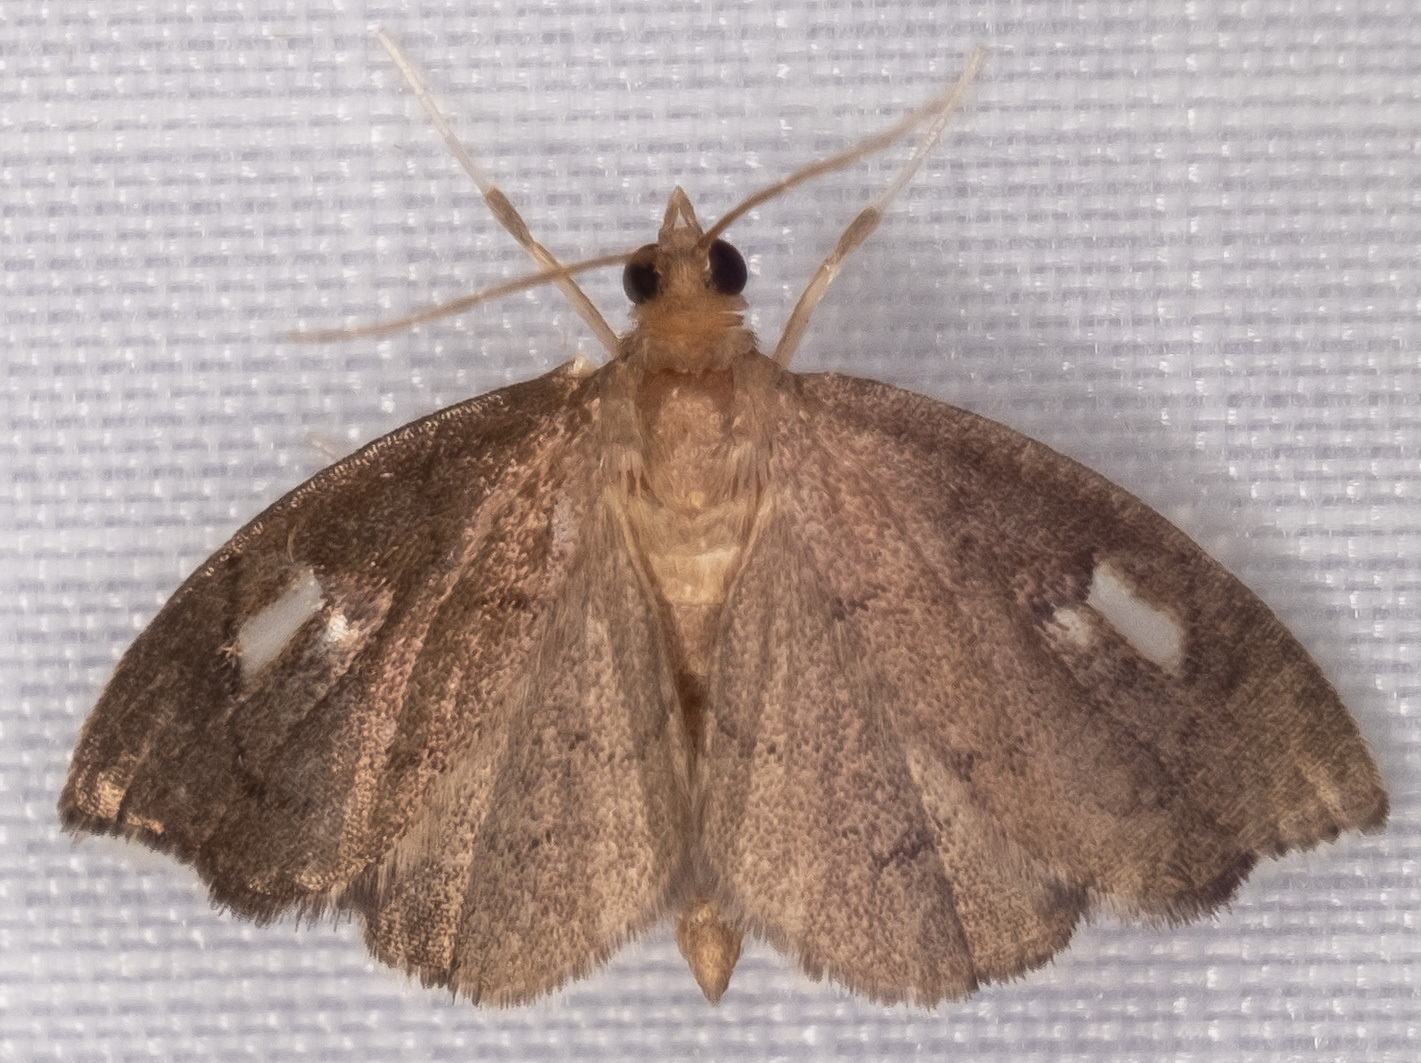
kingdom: Animalia
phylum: Arthropoda
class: Insecta
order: Lepidoptera
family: Crambidae
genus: Perispasta
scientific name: Perispasta caeculalis
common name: Titian peale's moth
